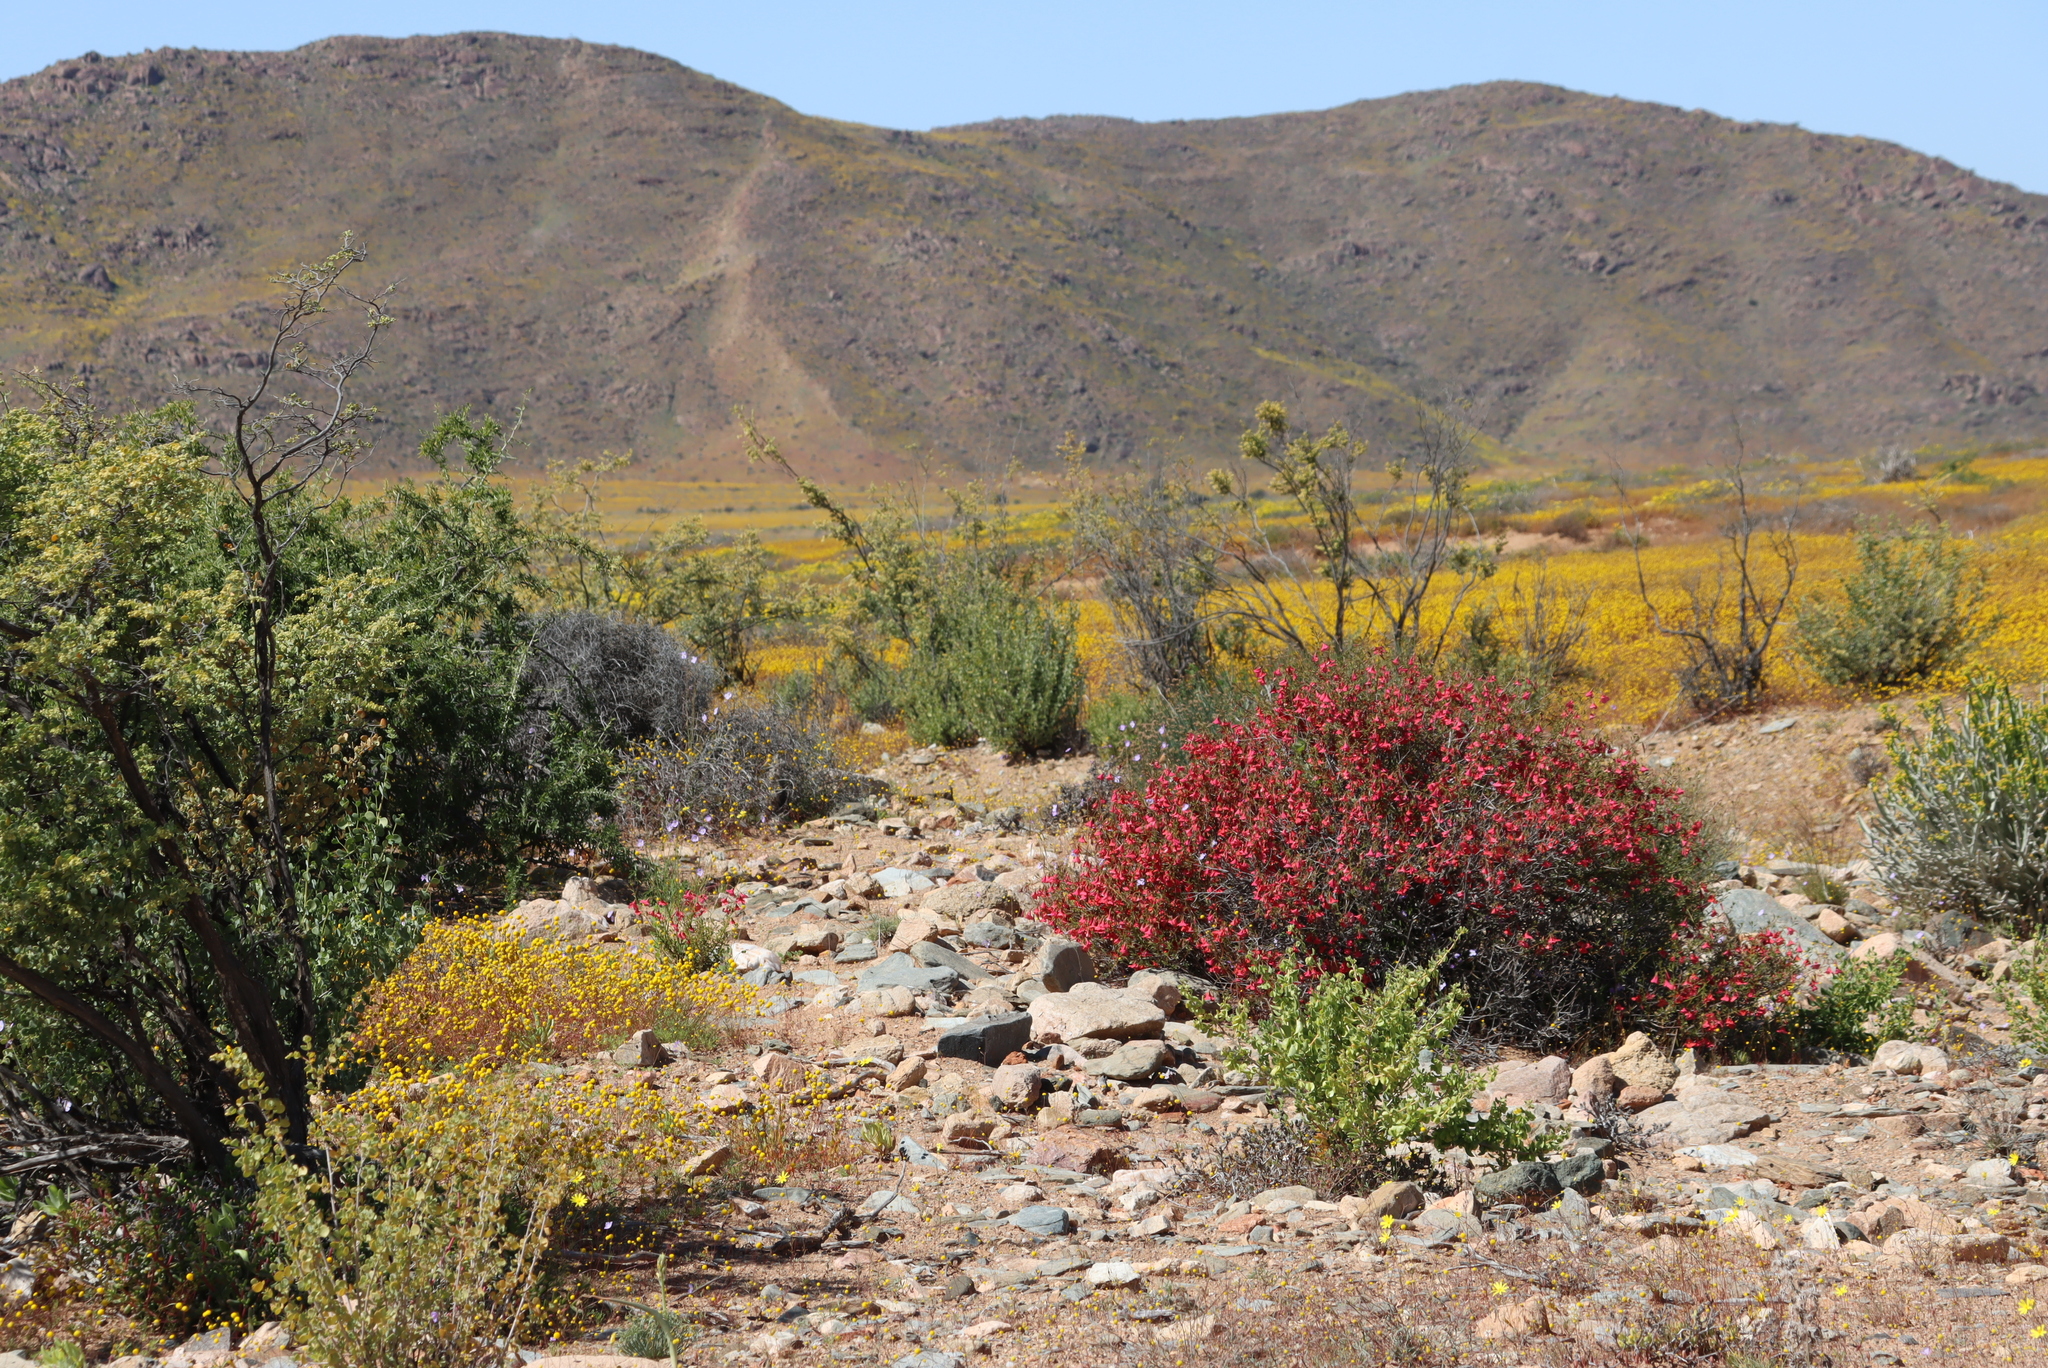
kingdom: Plantae
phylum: Tracheophyta
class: Magnoliopsida
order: Malvales
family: Malvaceae
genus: Hermannia
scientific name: Hermannia stricta
